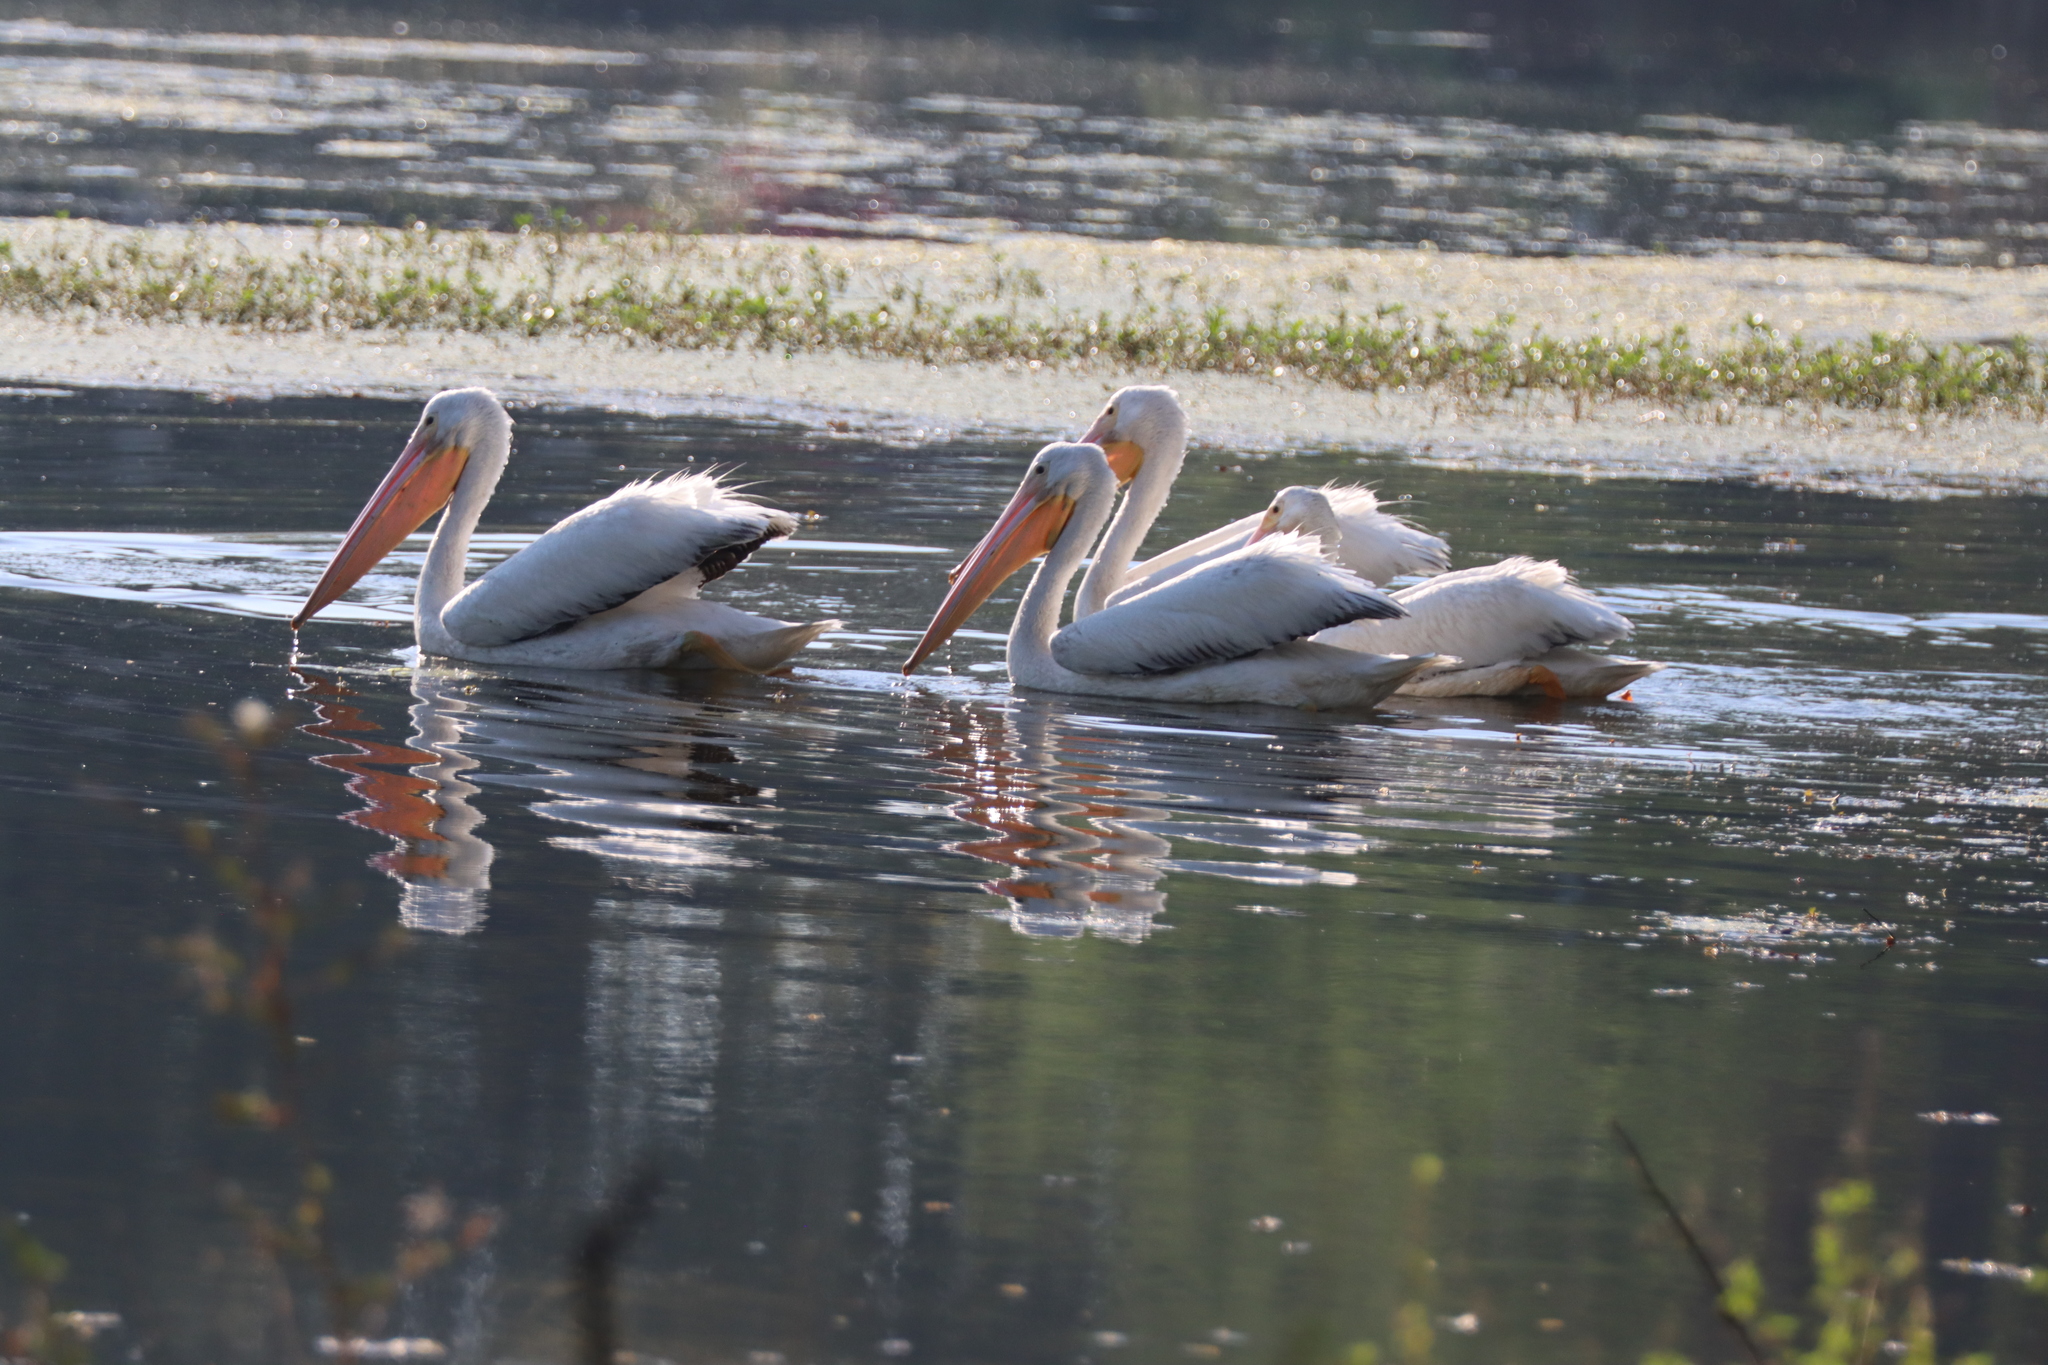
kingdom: Animalia
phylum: Chordata
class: Aves
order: Pelecaniformes
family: Pelecanidae
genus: Pelecanus
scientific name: Pelecanus erythrorhynchos
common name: American white pelican
